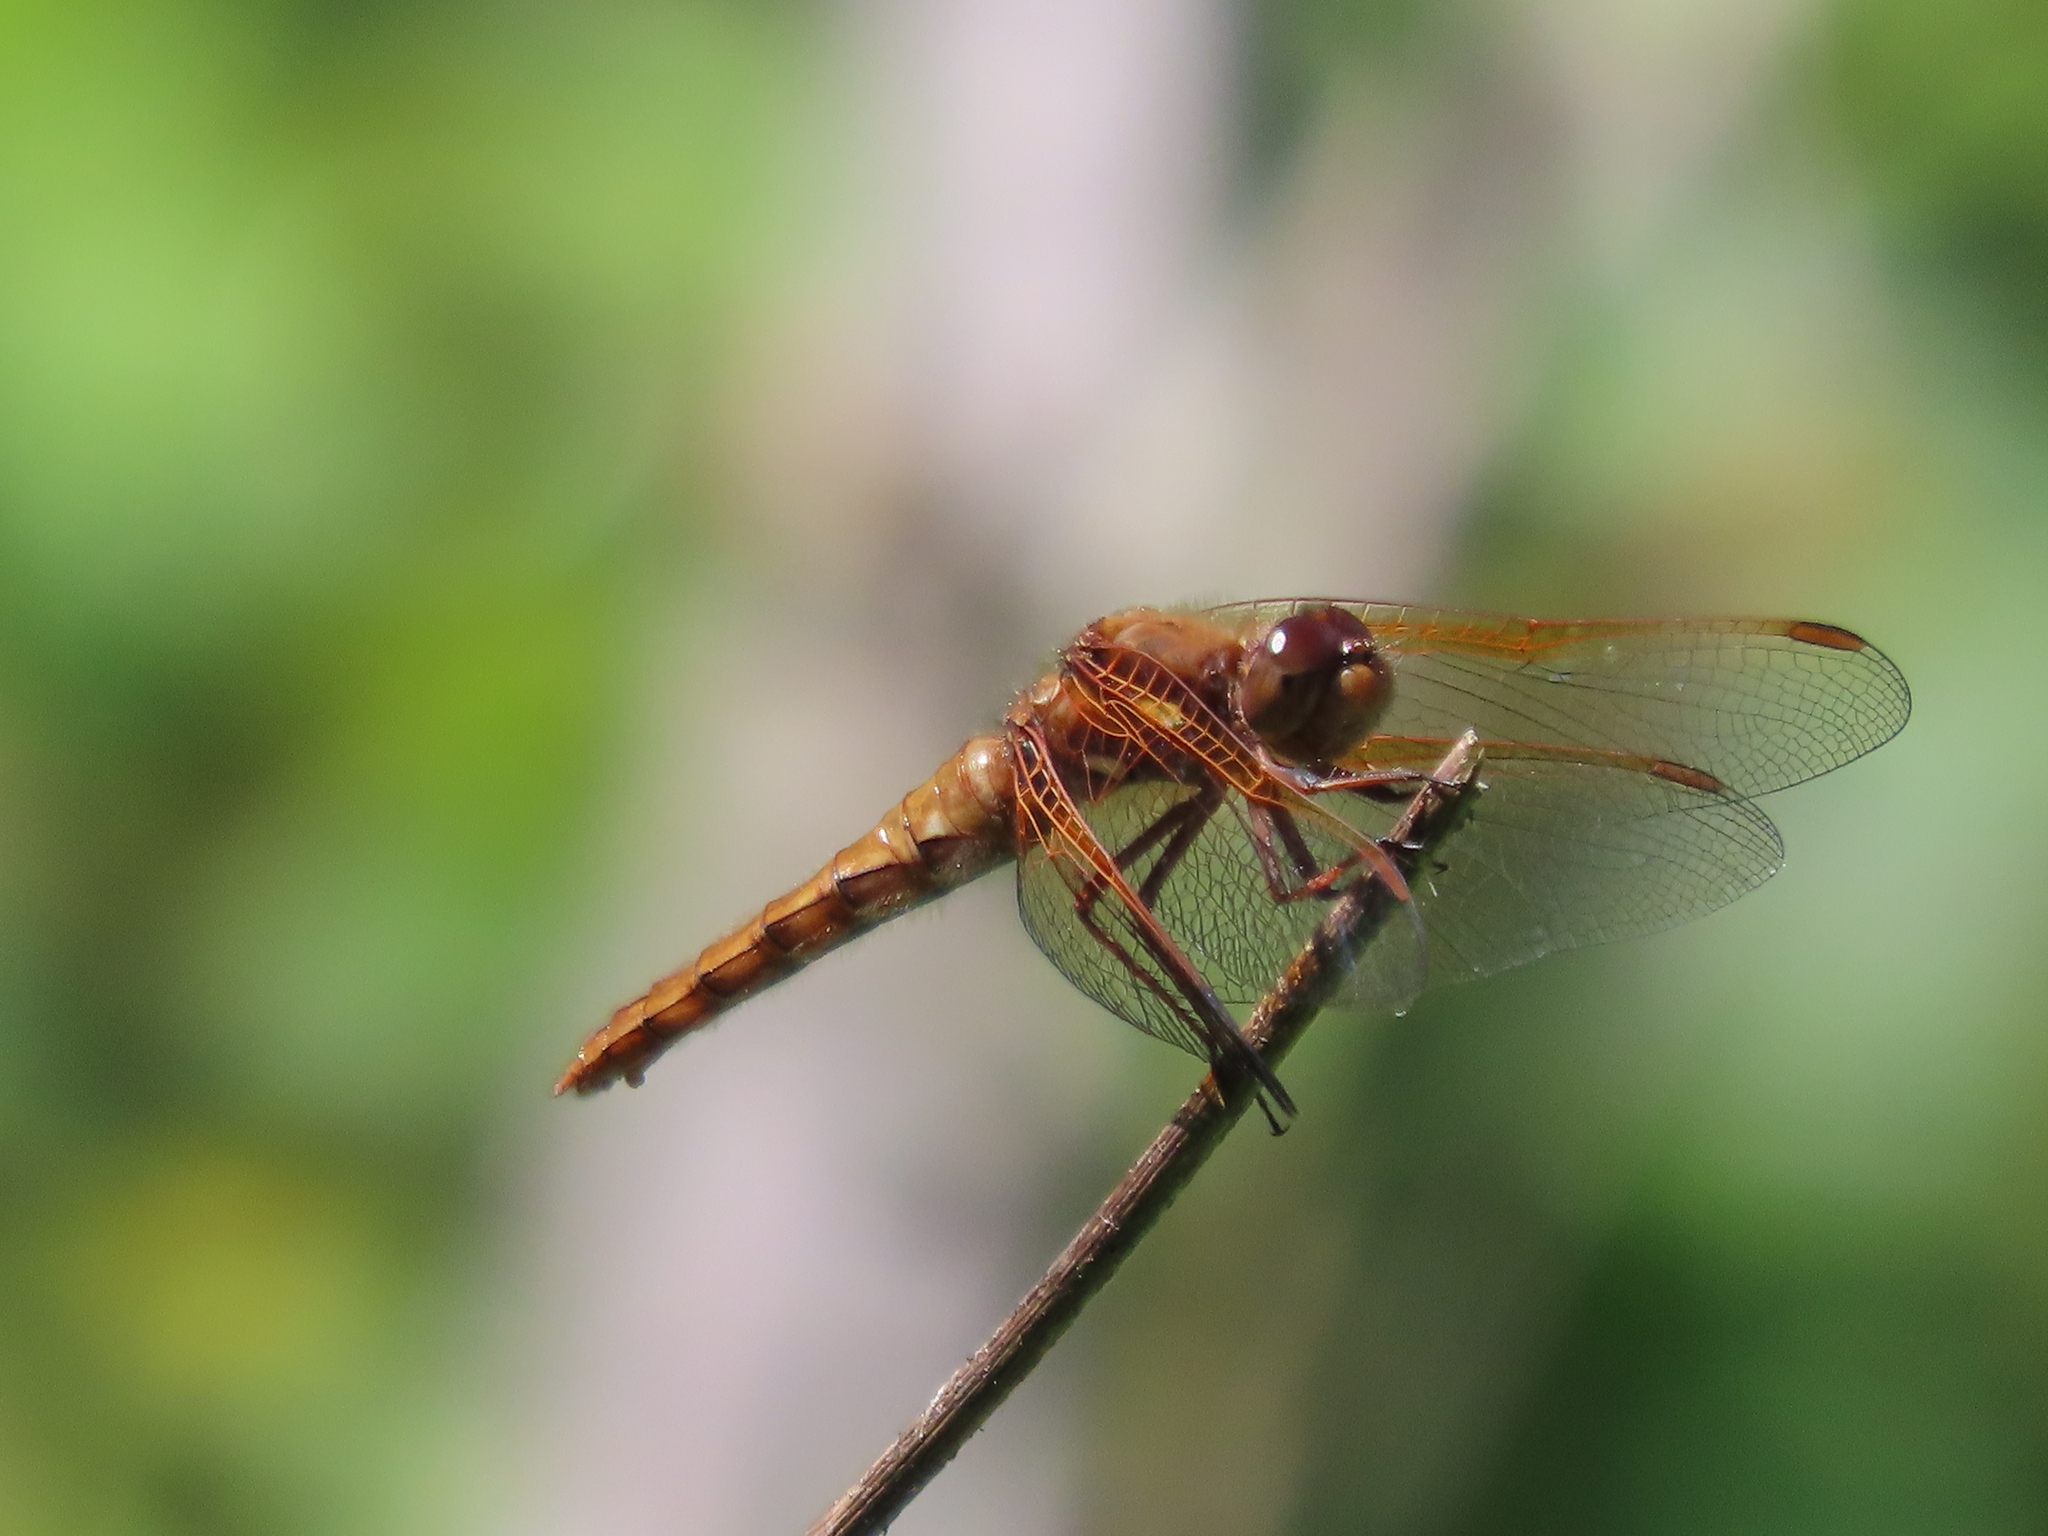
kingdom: Animalia
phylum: Arthropoda
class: Insecta
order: Odonata
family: Libellulidae
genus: Sympetrum
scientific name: Sympetrum illotum
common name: Cardinal meadowhawk
